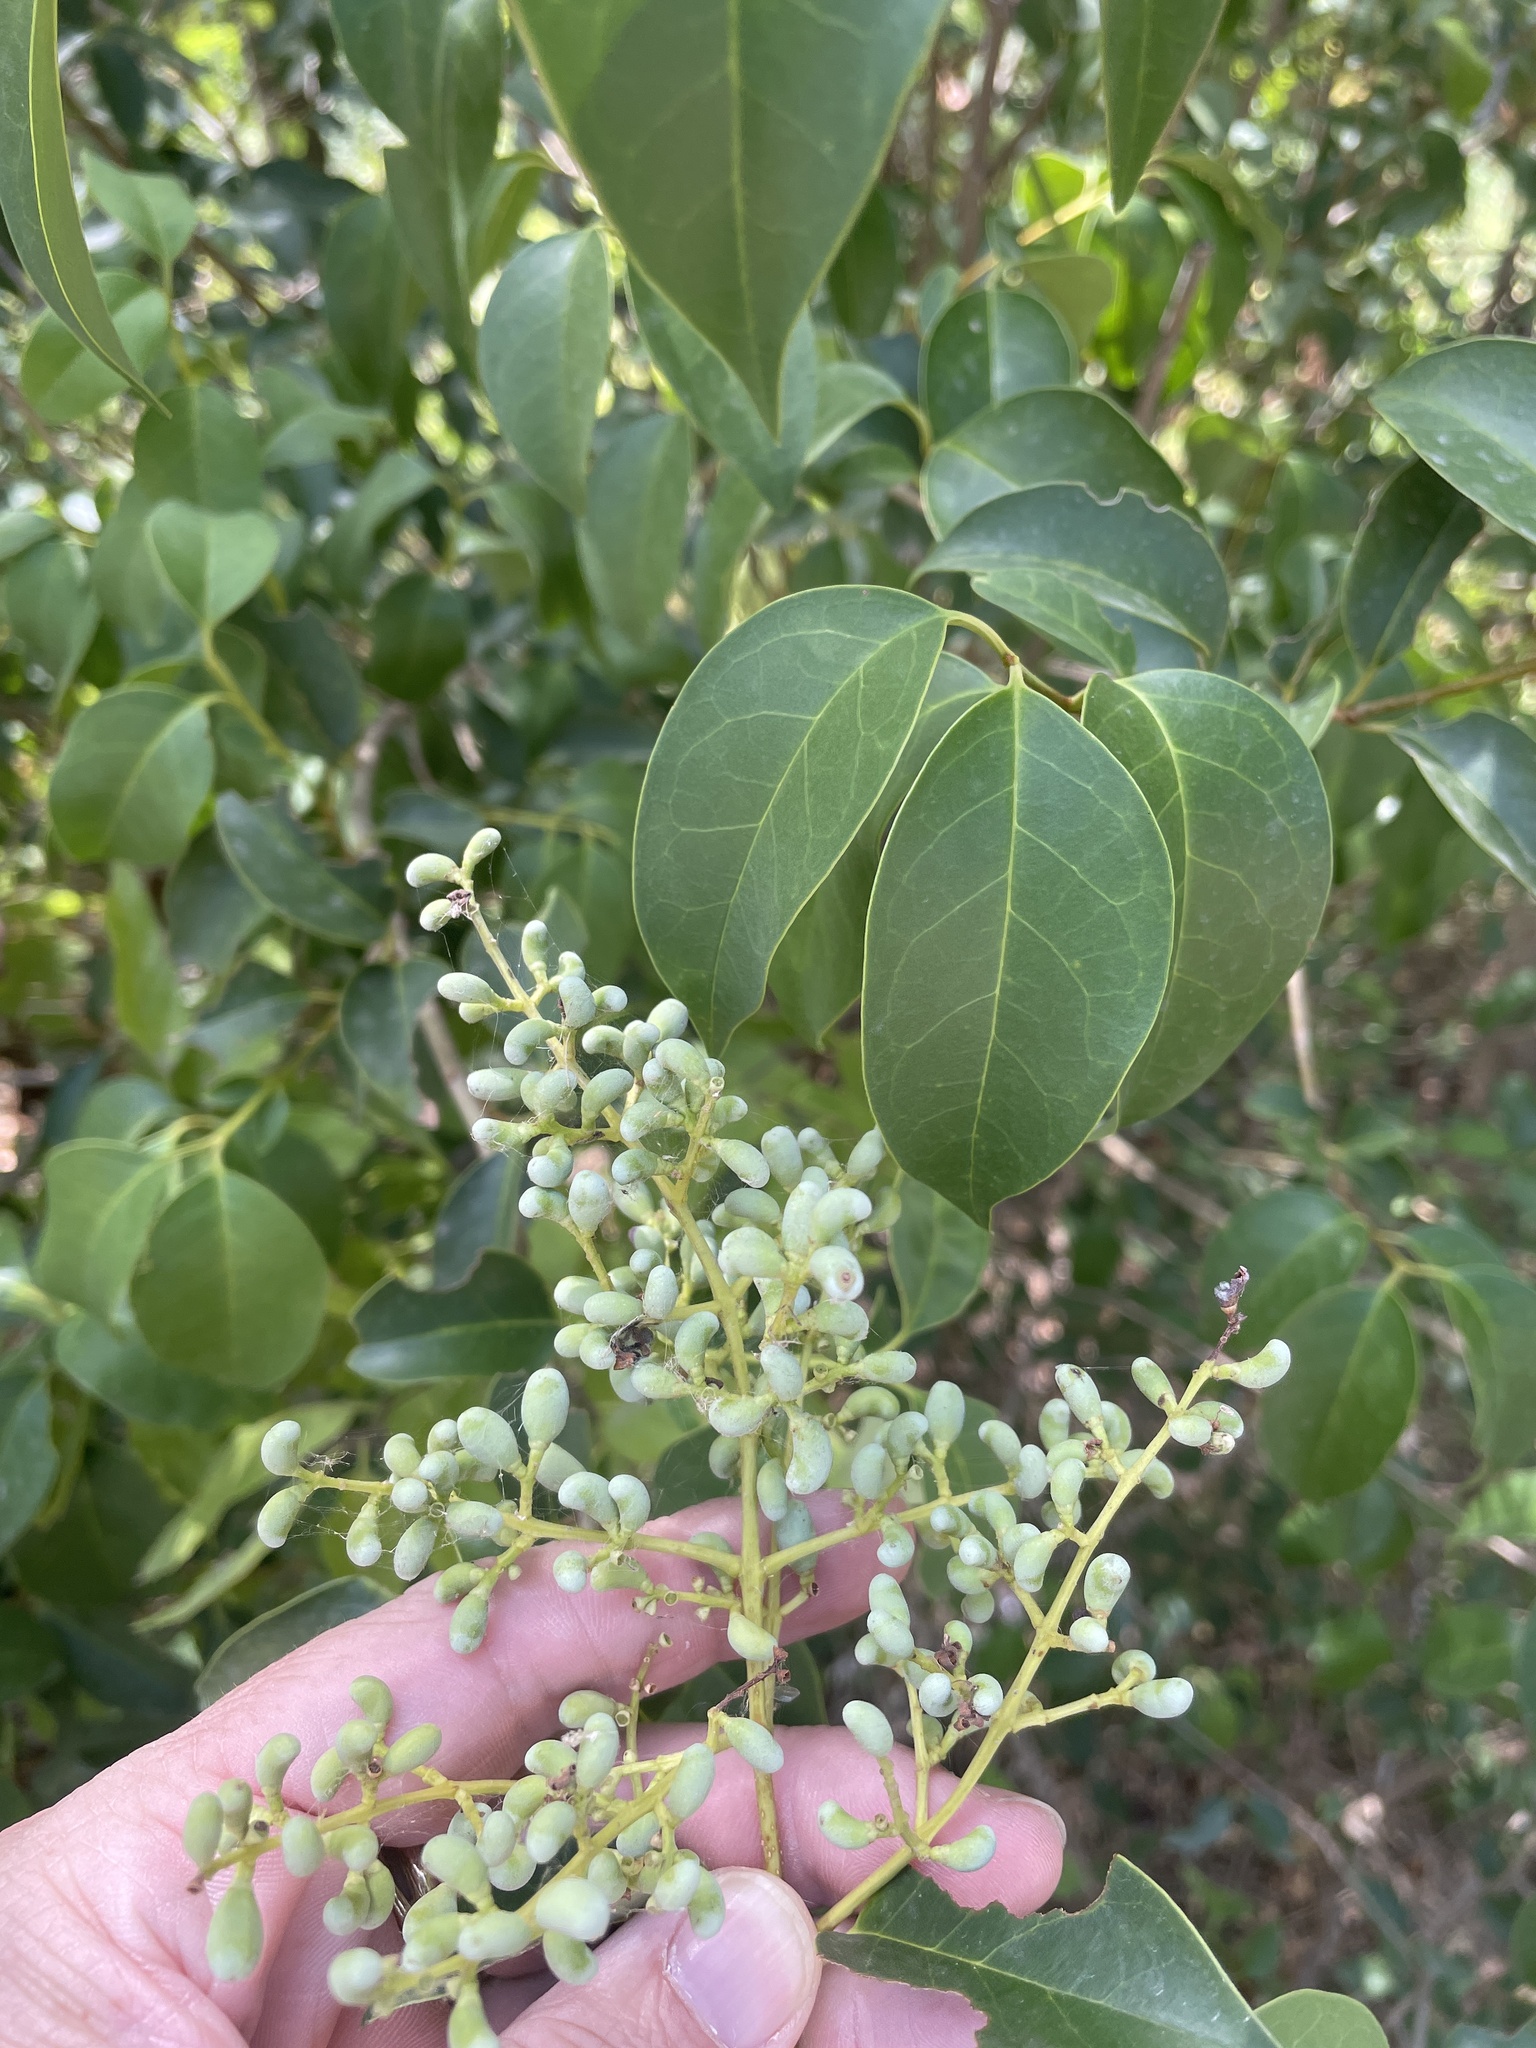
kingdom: Plantae
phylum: Tracheophyta
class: Magnoliopsida
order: Lamiales
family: Oleaceae
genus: Ligustrum
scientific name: Ligustrum lucidum
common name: Glossy privet
